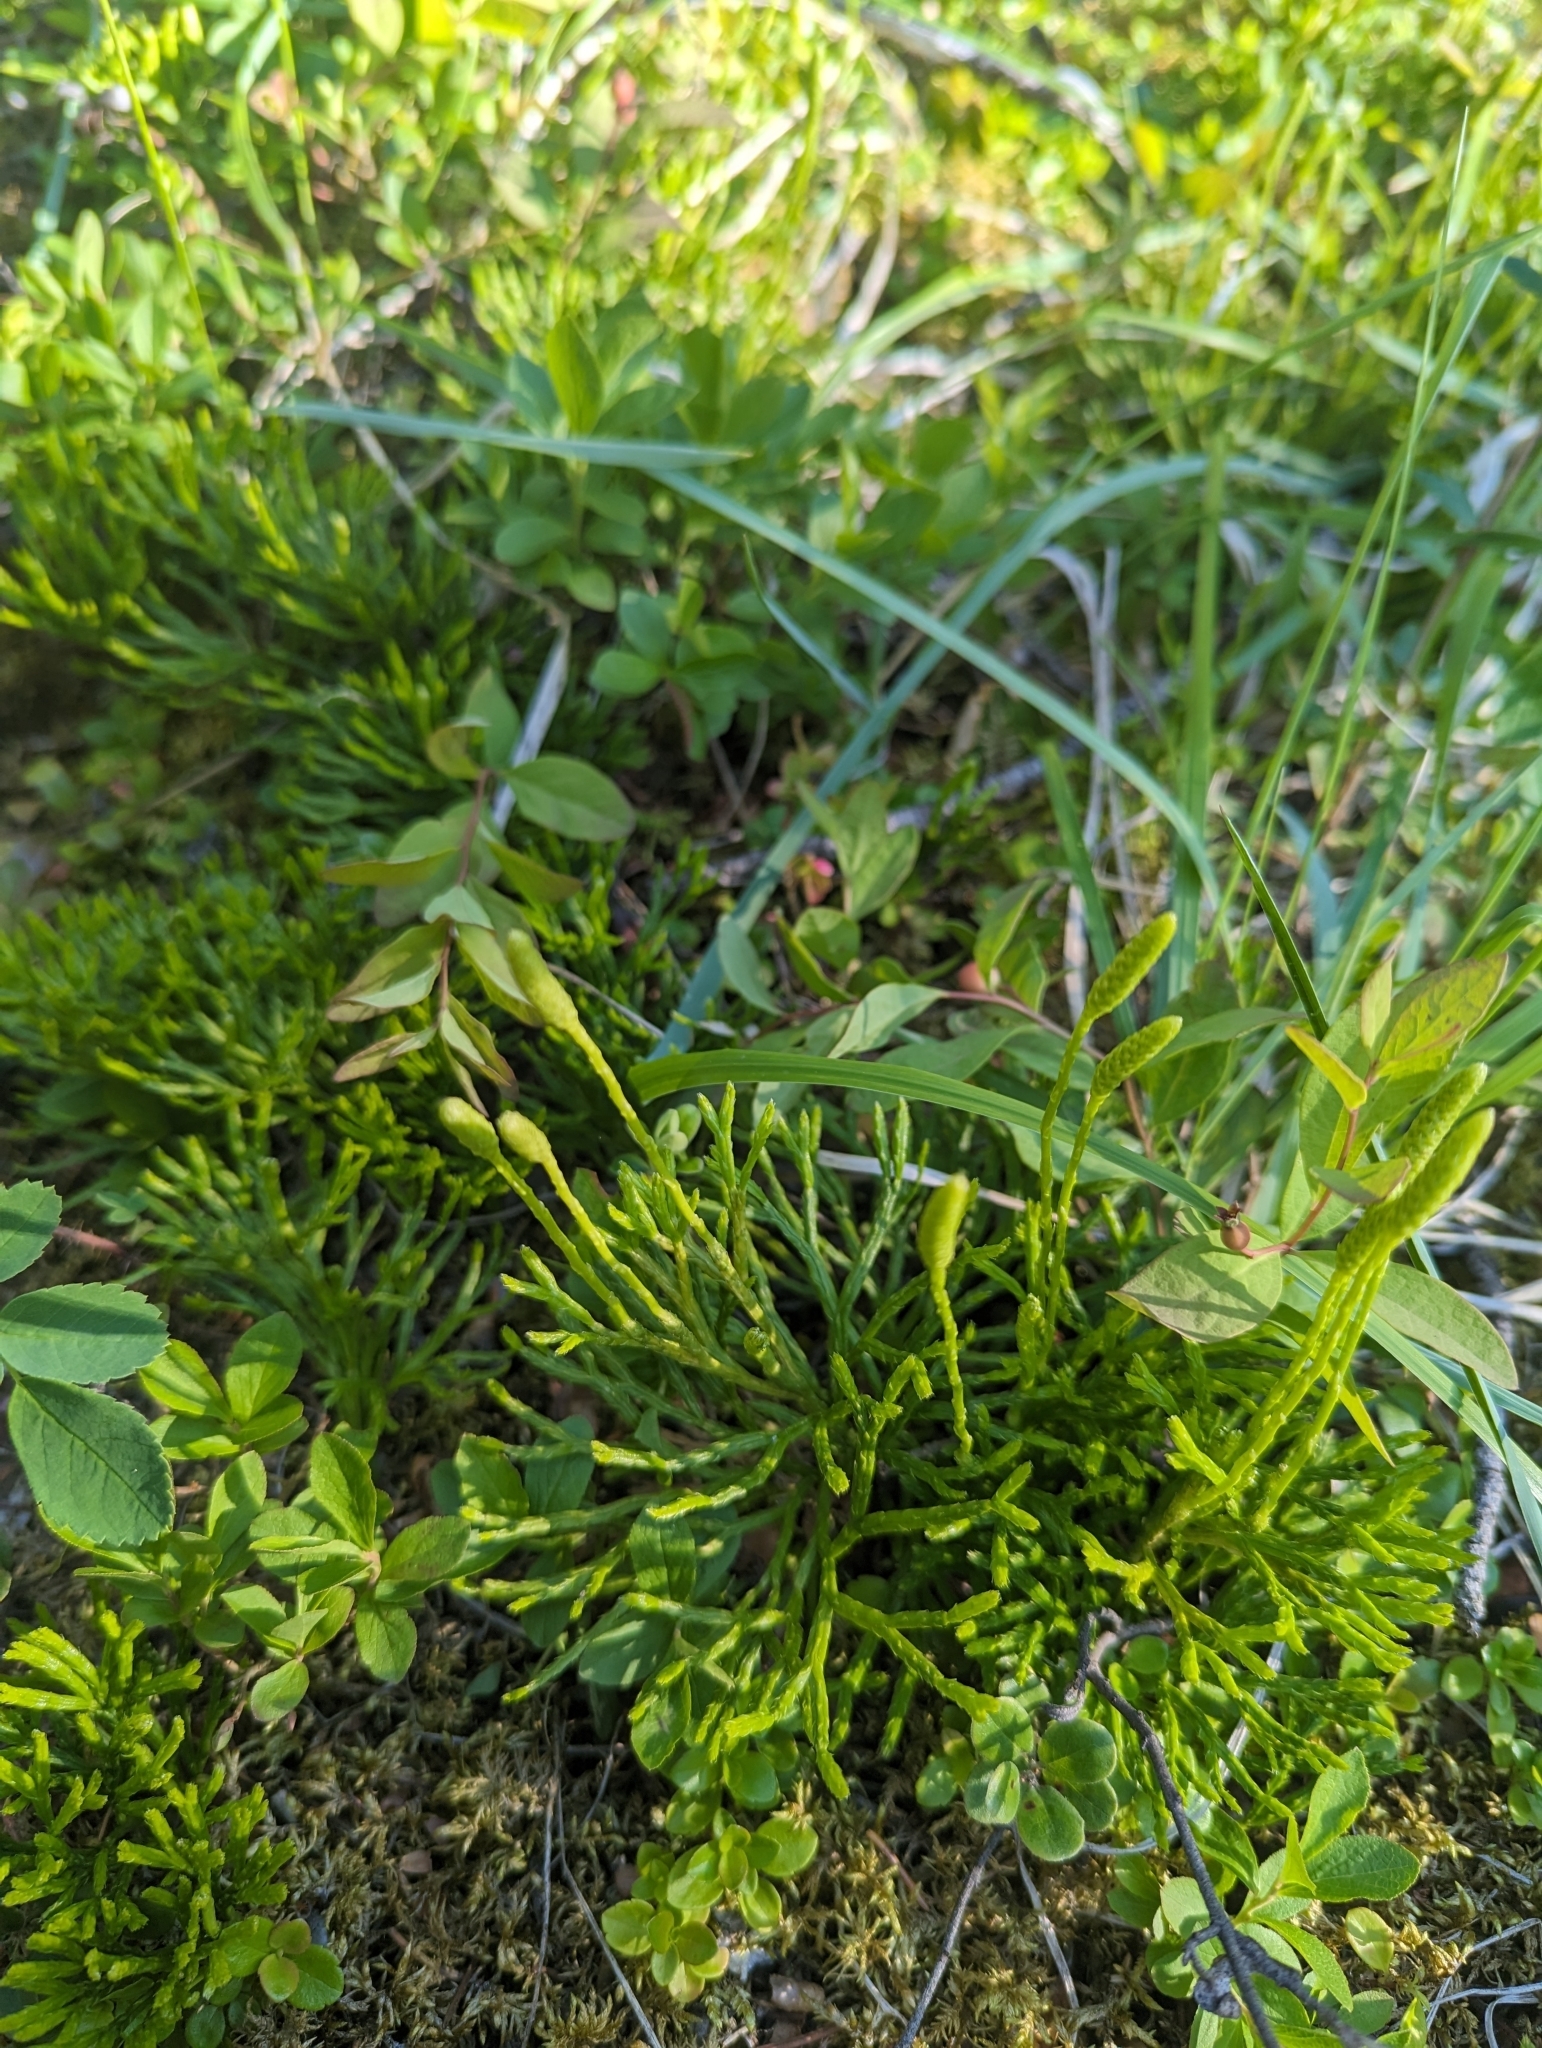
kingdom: Plantae
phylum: Tracheophyta
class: Lycopodiopsida
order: Lycopodiales
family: Lycopodiaceae
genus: Diphasiastrum
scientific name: Diphasiastrum complanatum
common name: Northern running-pine
